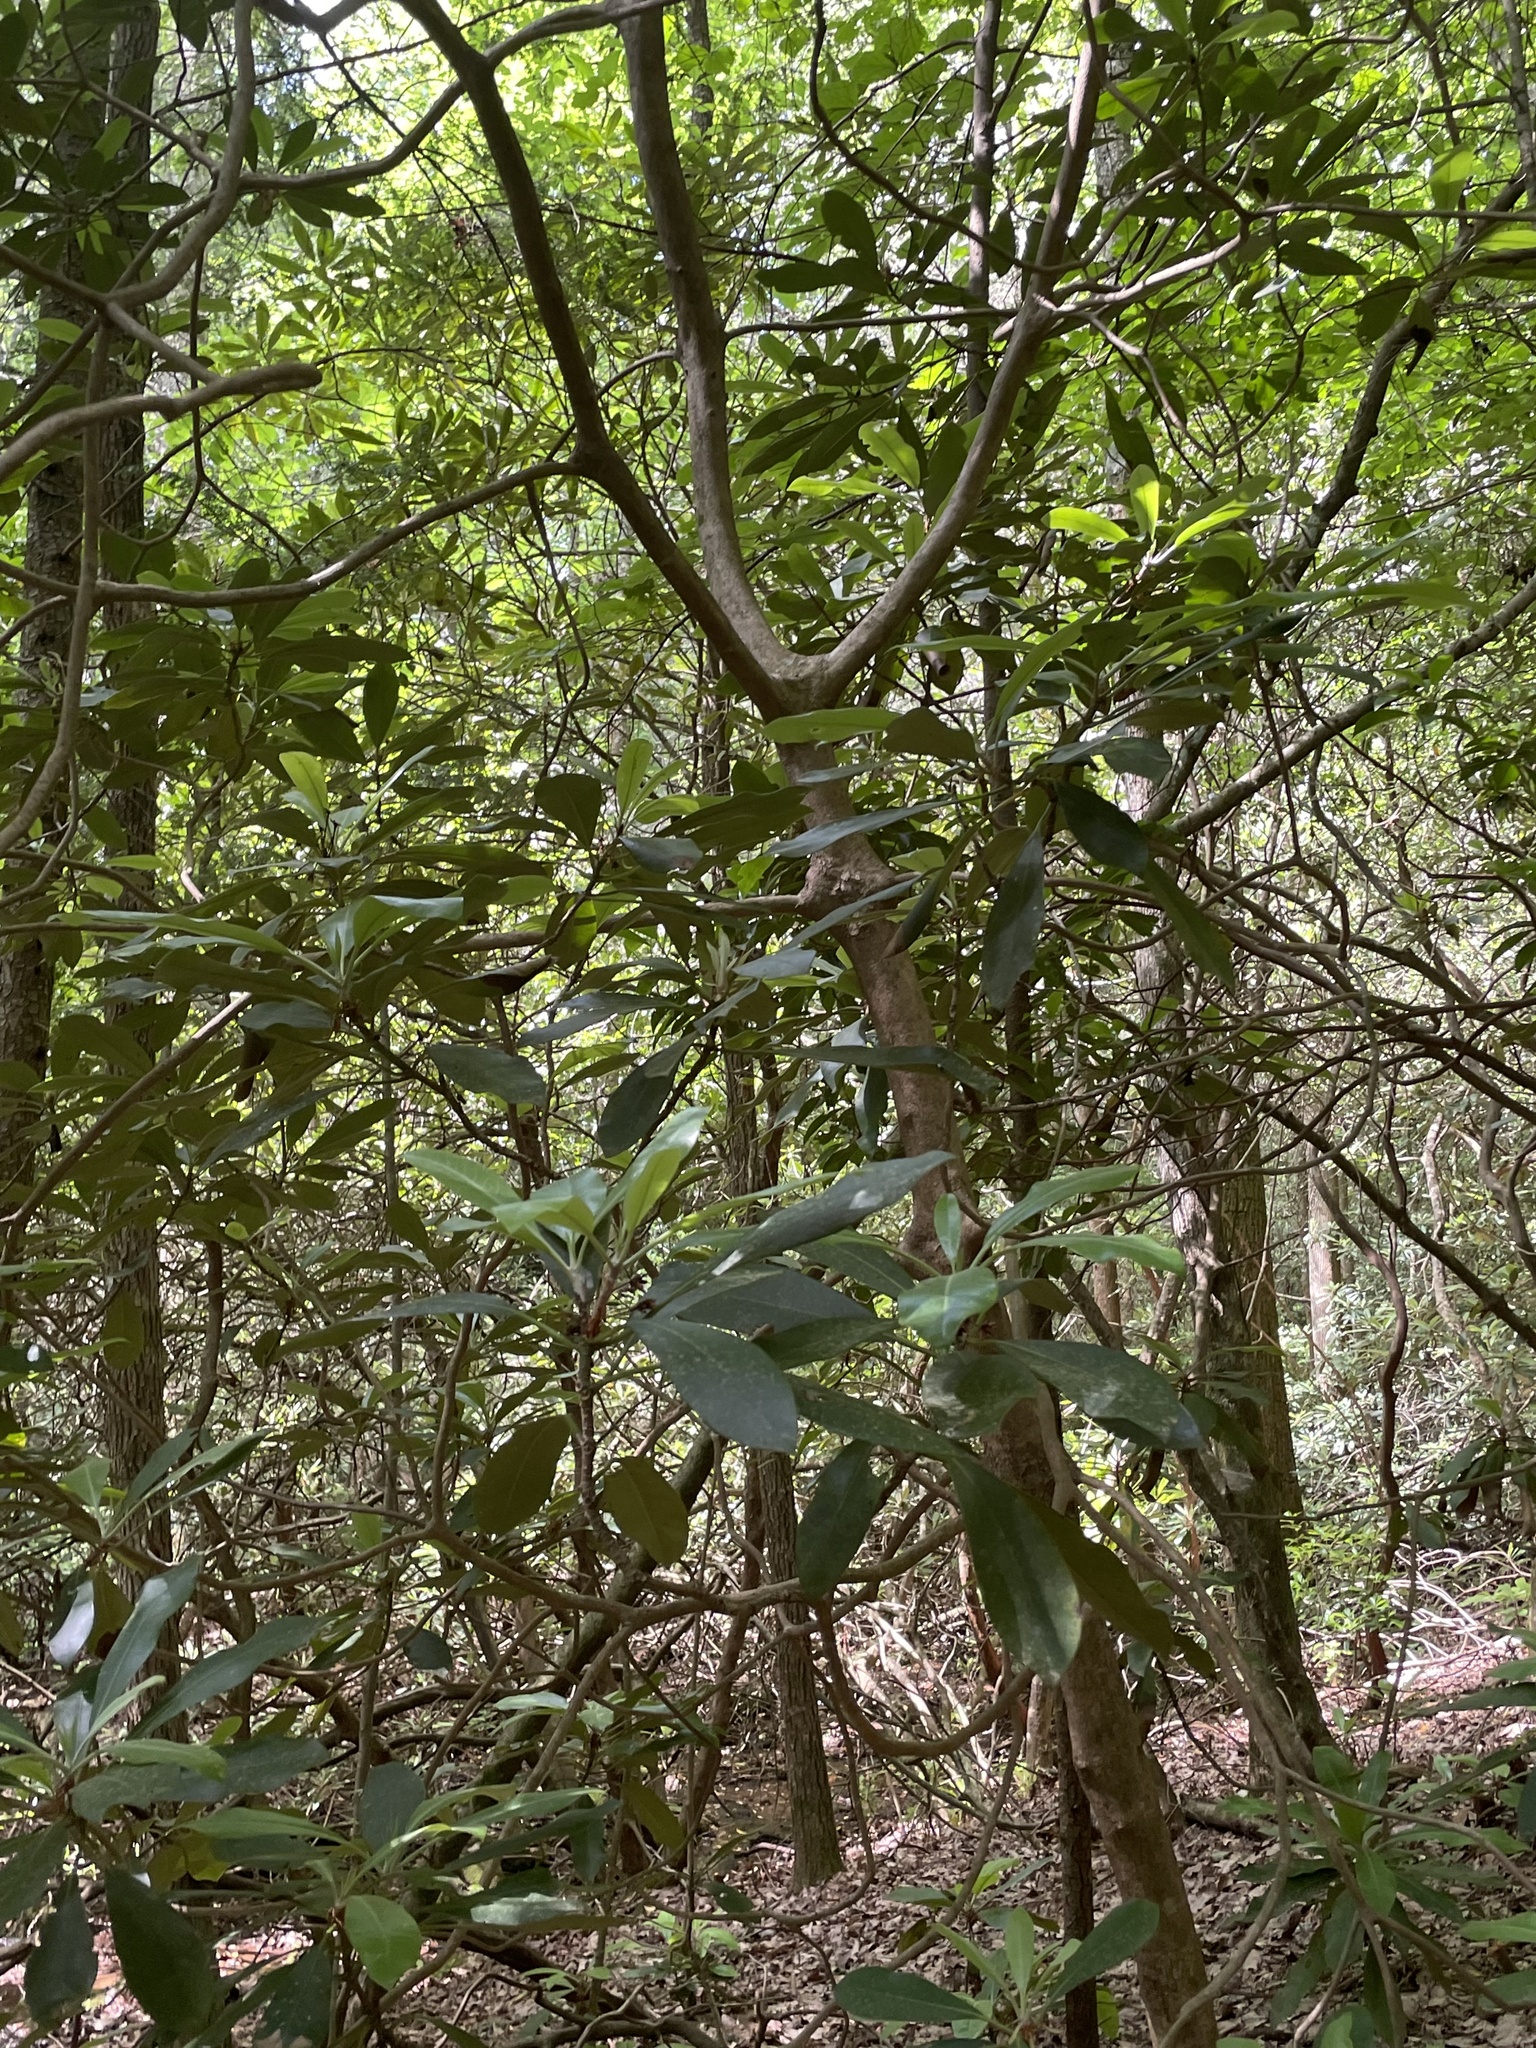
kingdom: Plantae
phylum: Tracheophyta
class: Magnoliopsida
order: Ericales
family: Ericaceae
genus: Rhododendron
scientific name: Rhododendron maximum
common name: Great rhododendron
